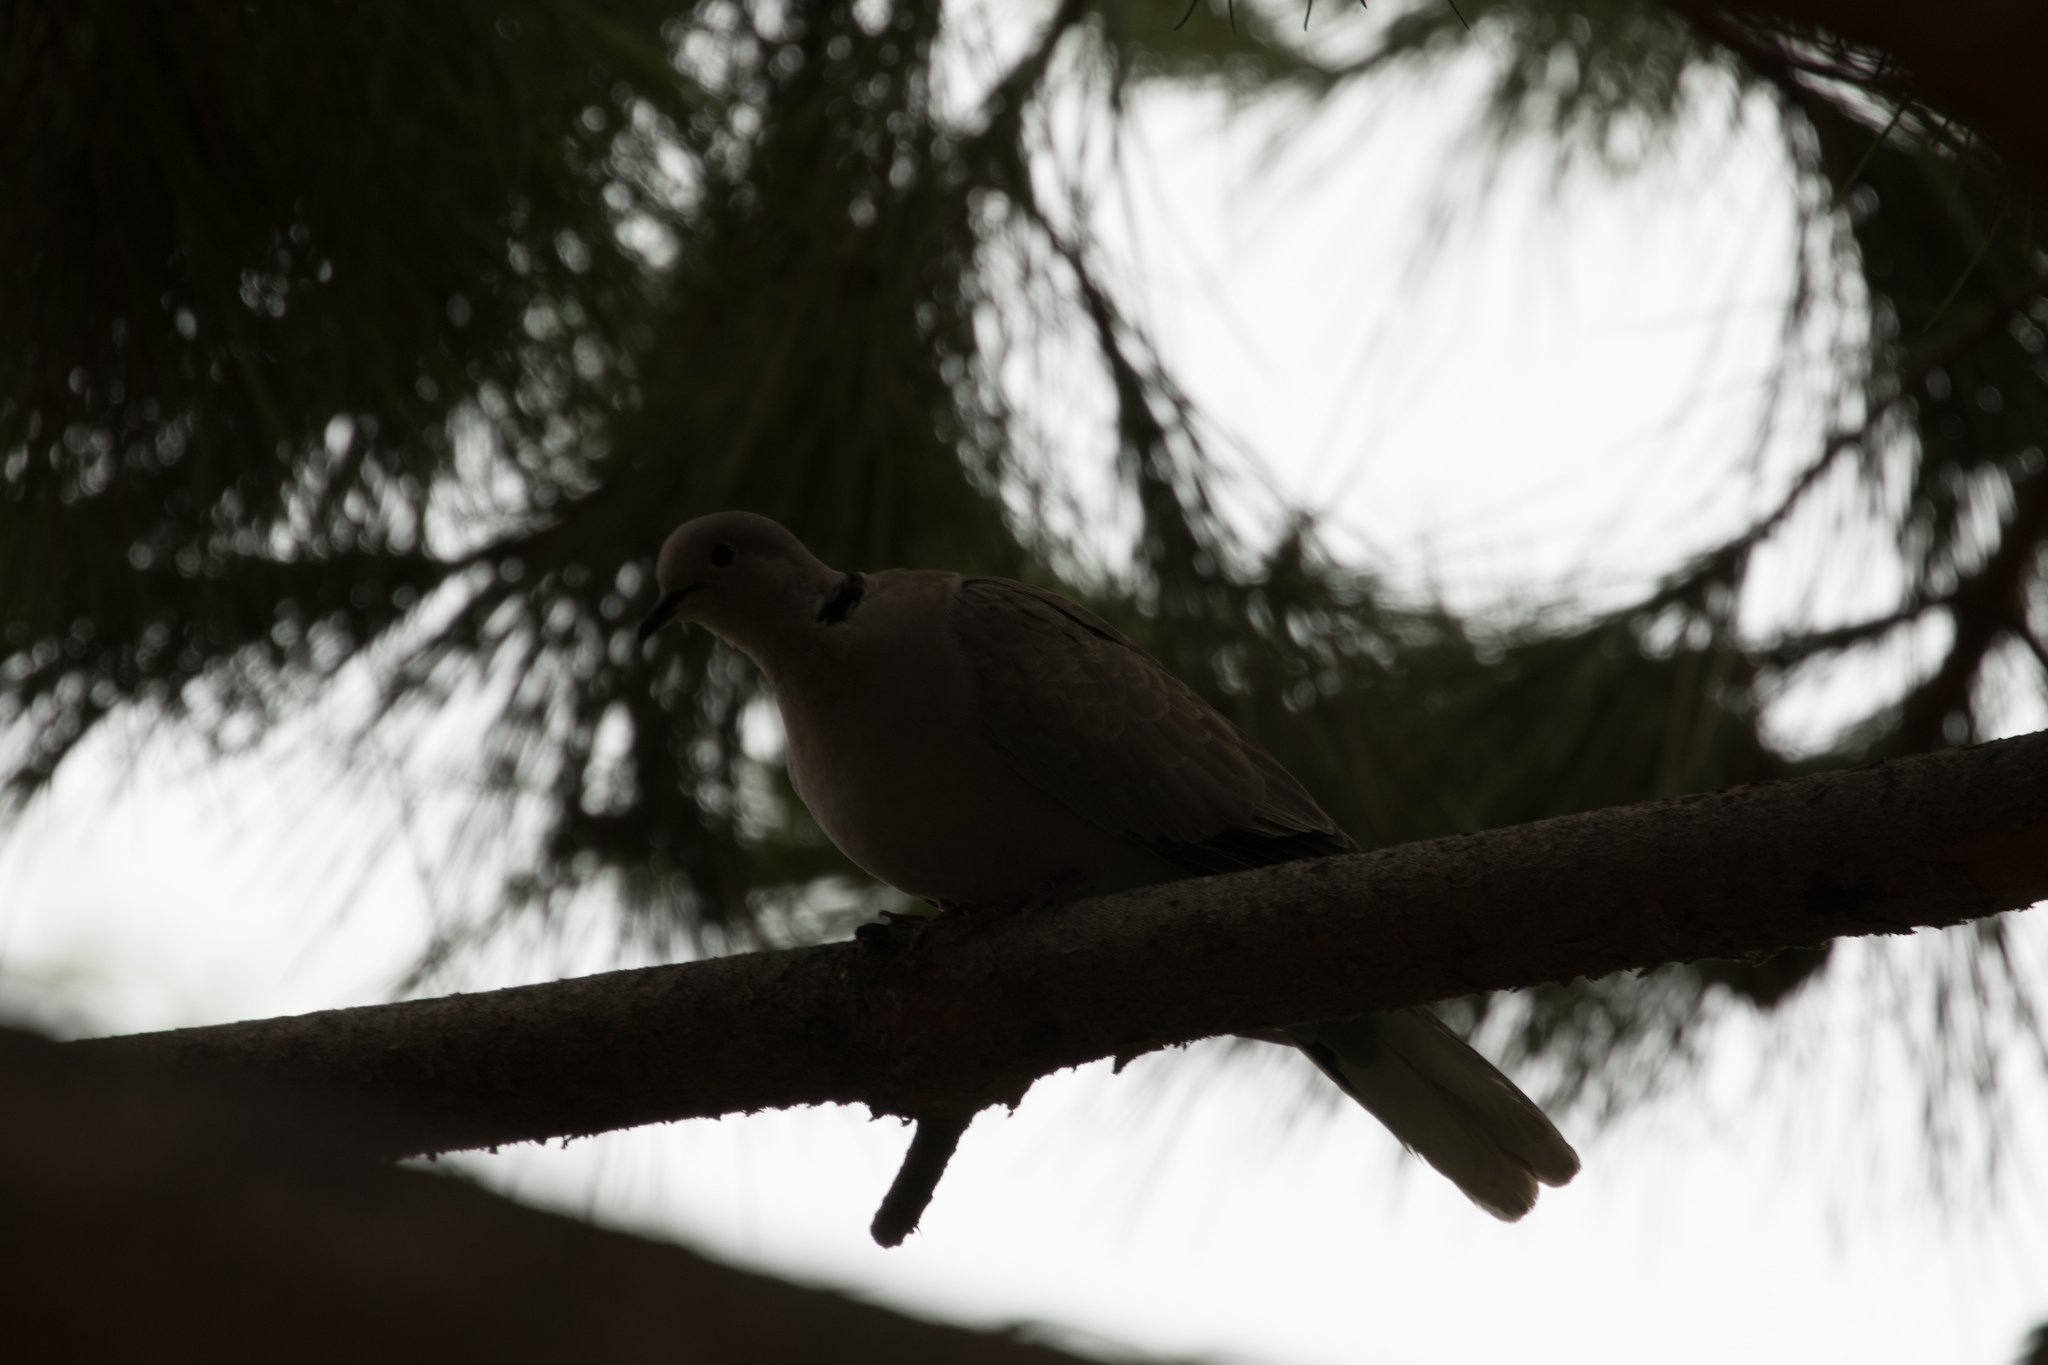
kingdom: Animalia
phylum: Chordata
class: Aves
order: Columbiformes
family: Columbidae
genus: Streptopelia
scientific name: Streptopelia decaocto
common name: Eurasian collared dove
